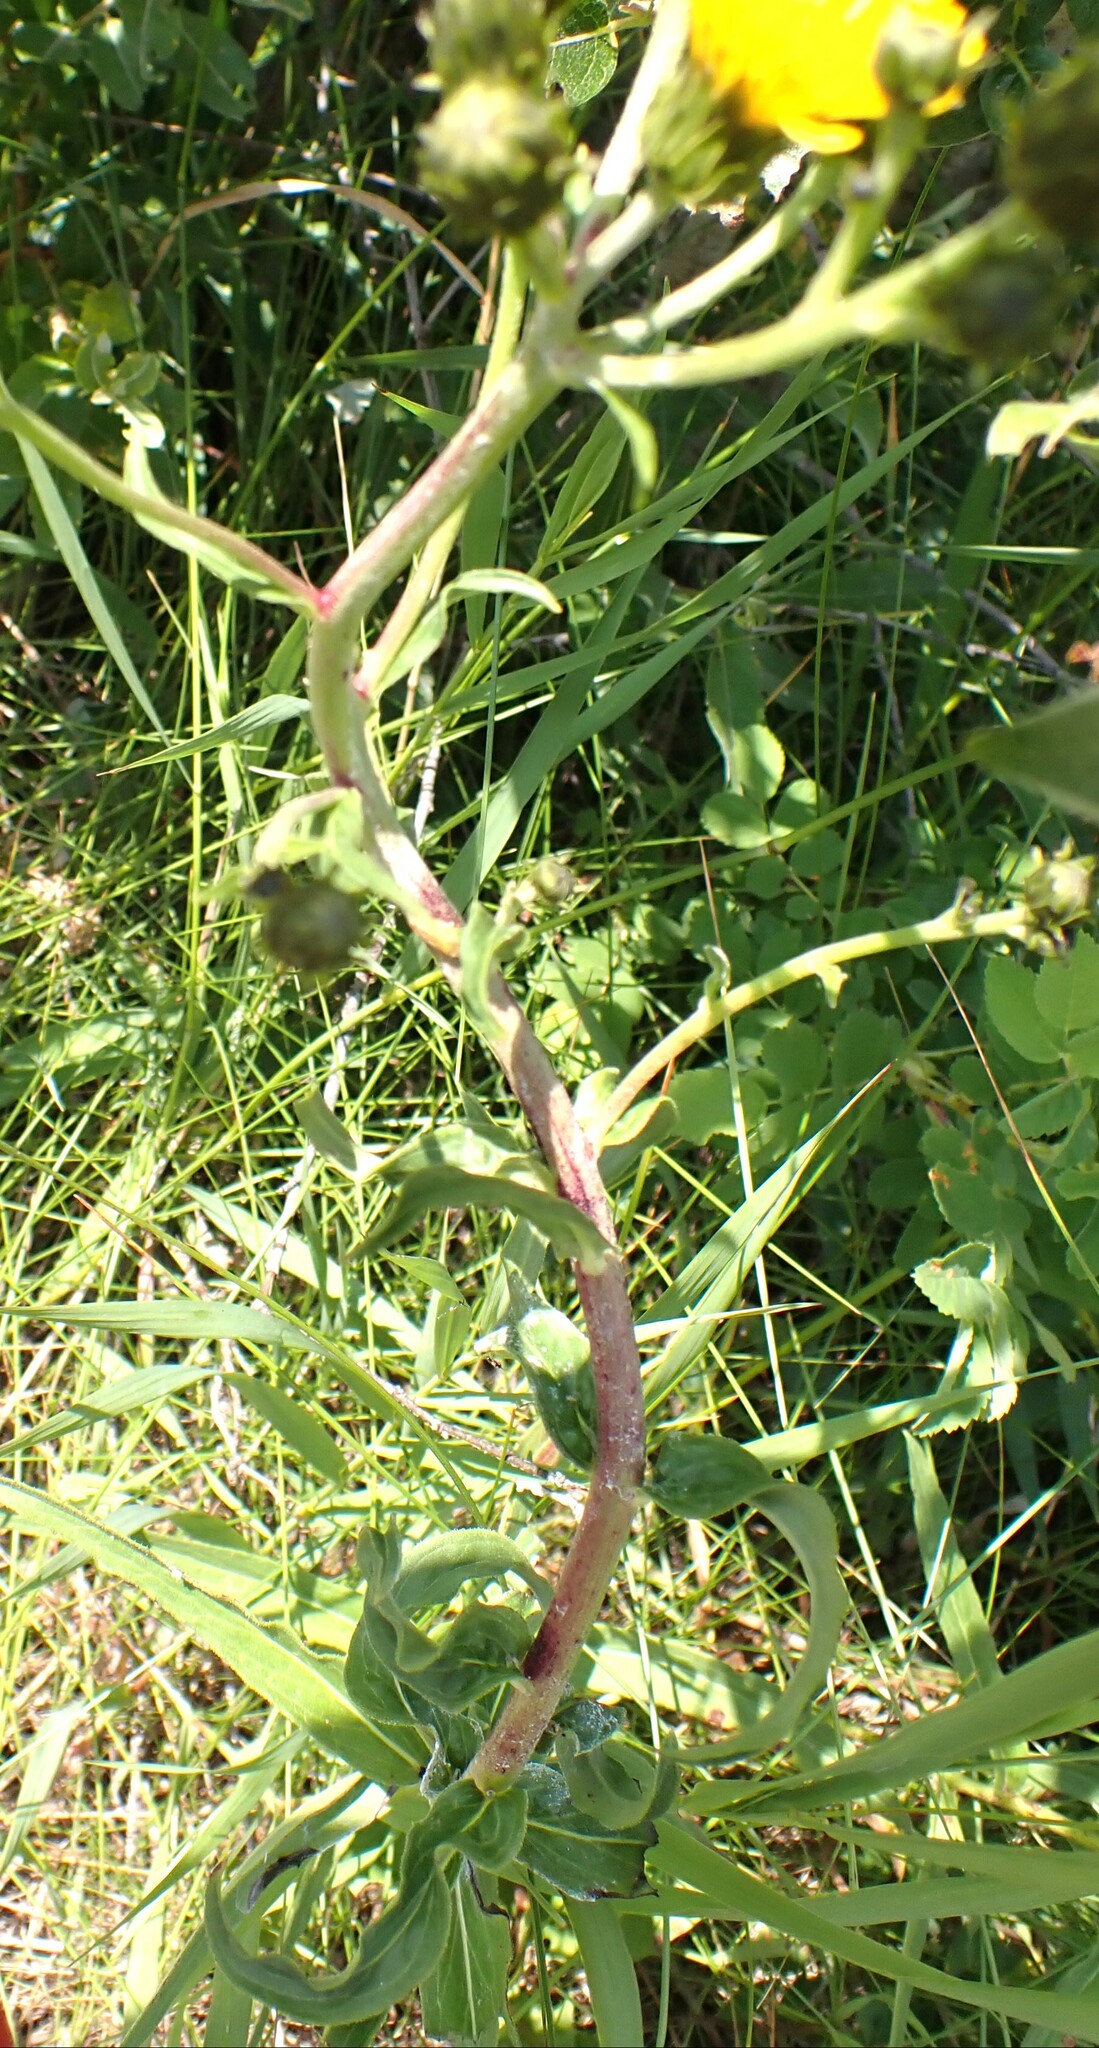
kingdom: Plantae
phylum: Tracheophyta
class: Magnoliopsida
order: Asterales
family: Asteraceae
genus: Hieracium
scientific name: Hieracium umbellatum
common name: Northern hawkweed
